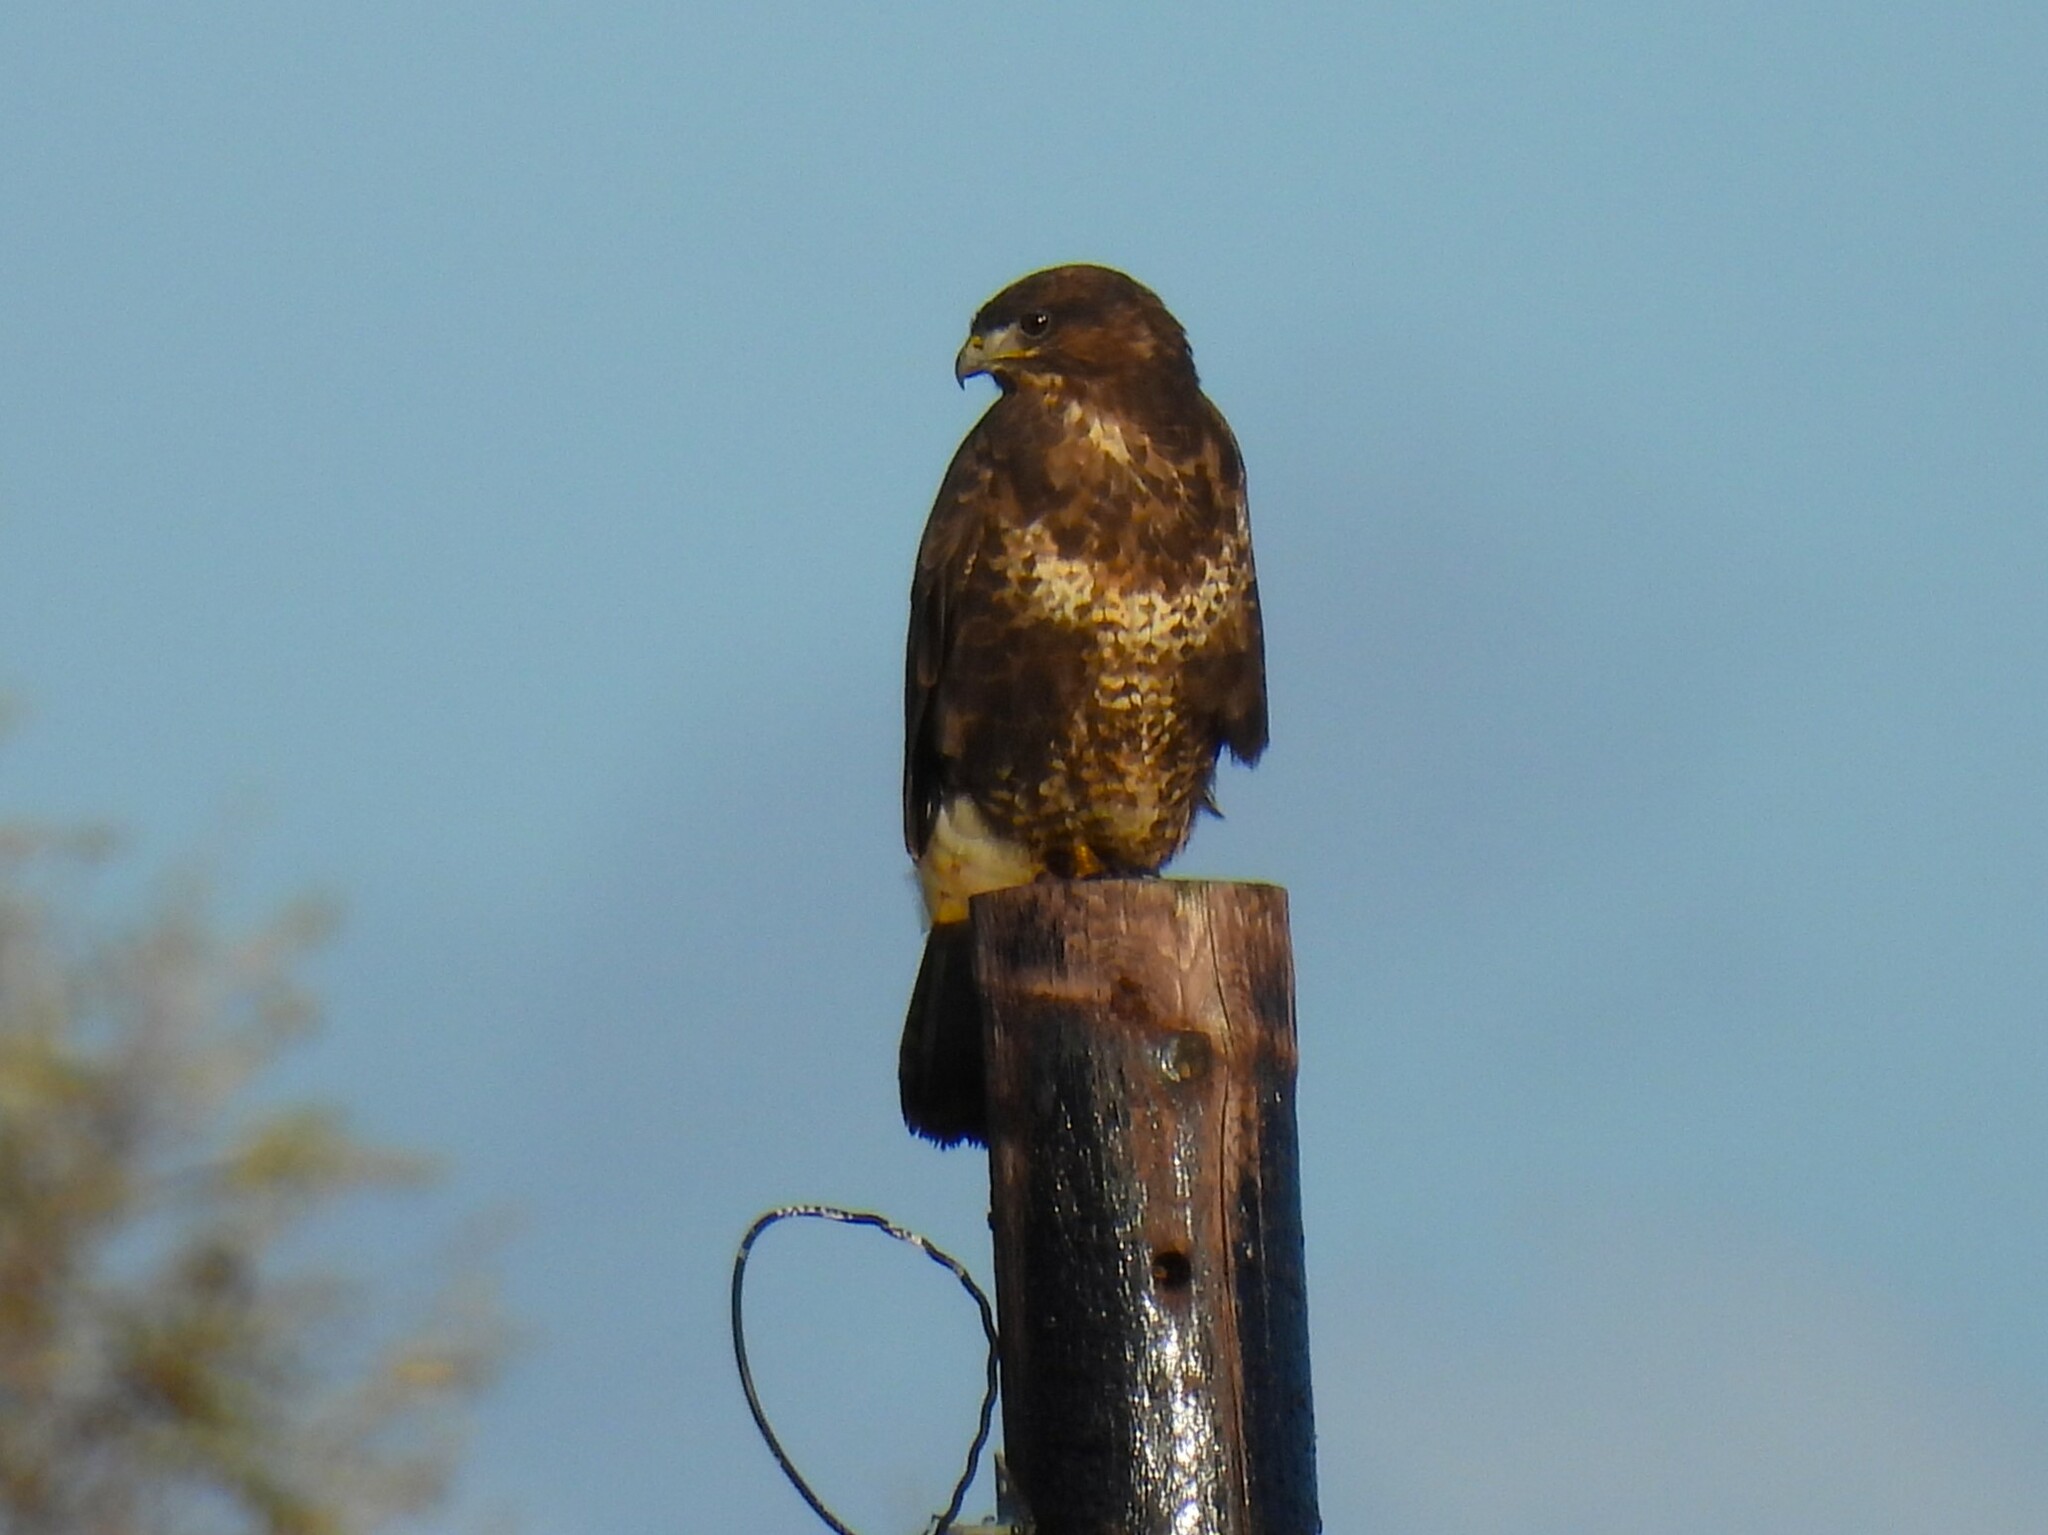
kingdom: Animalia
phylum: Chordata
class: Aves
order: Accipitriformes
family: Accipitridae
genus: Buteo
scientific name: Buteo buteo
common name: Common buzzard
